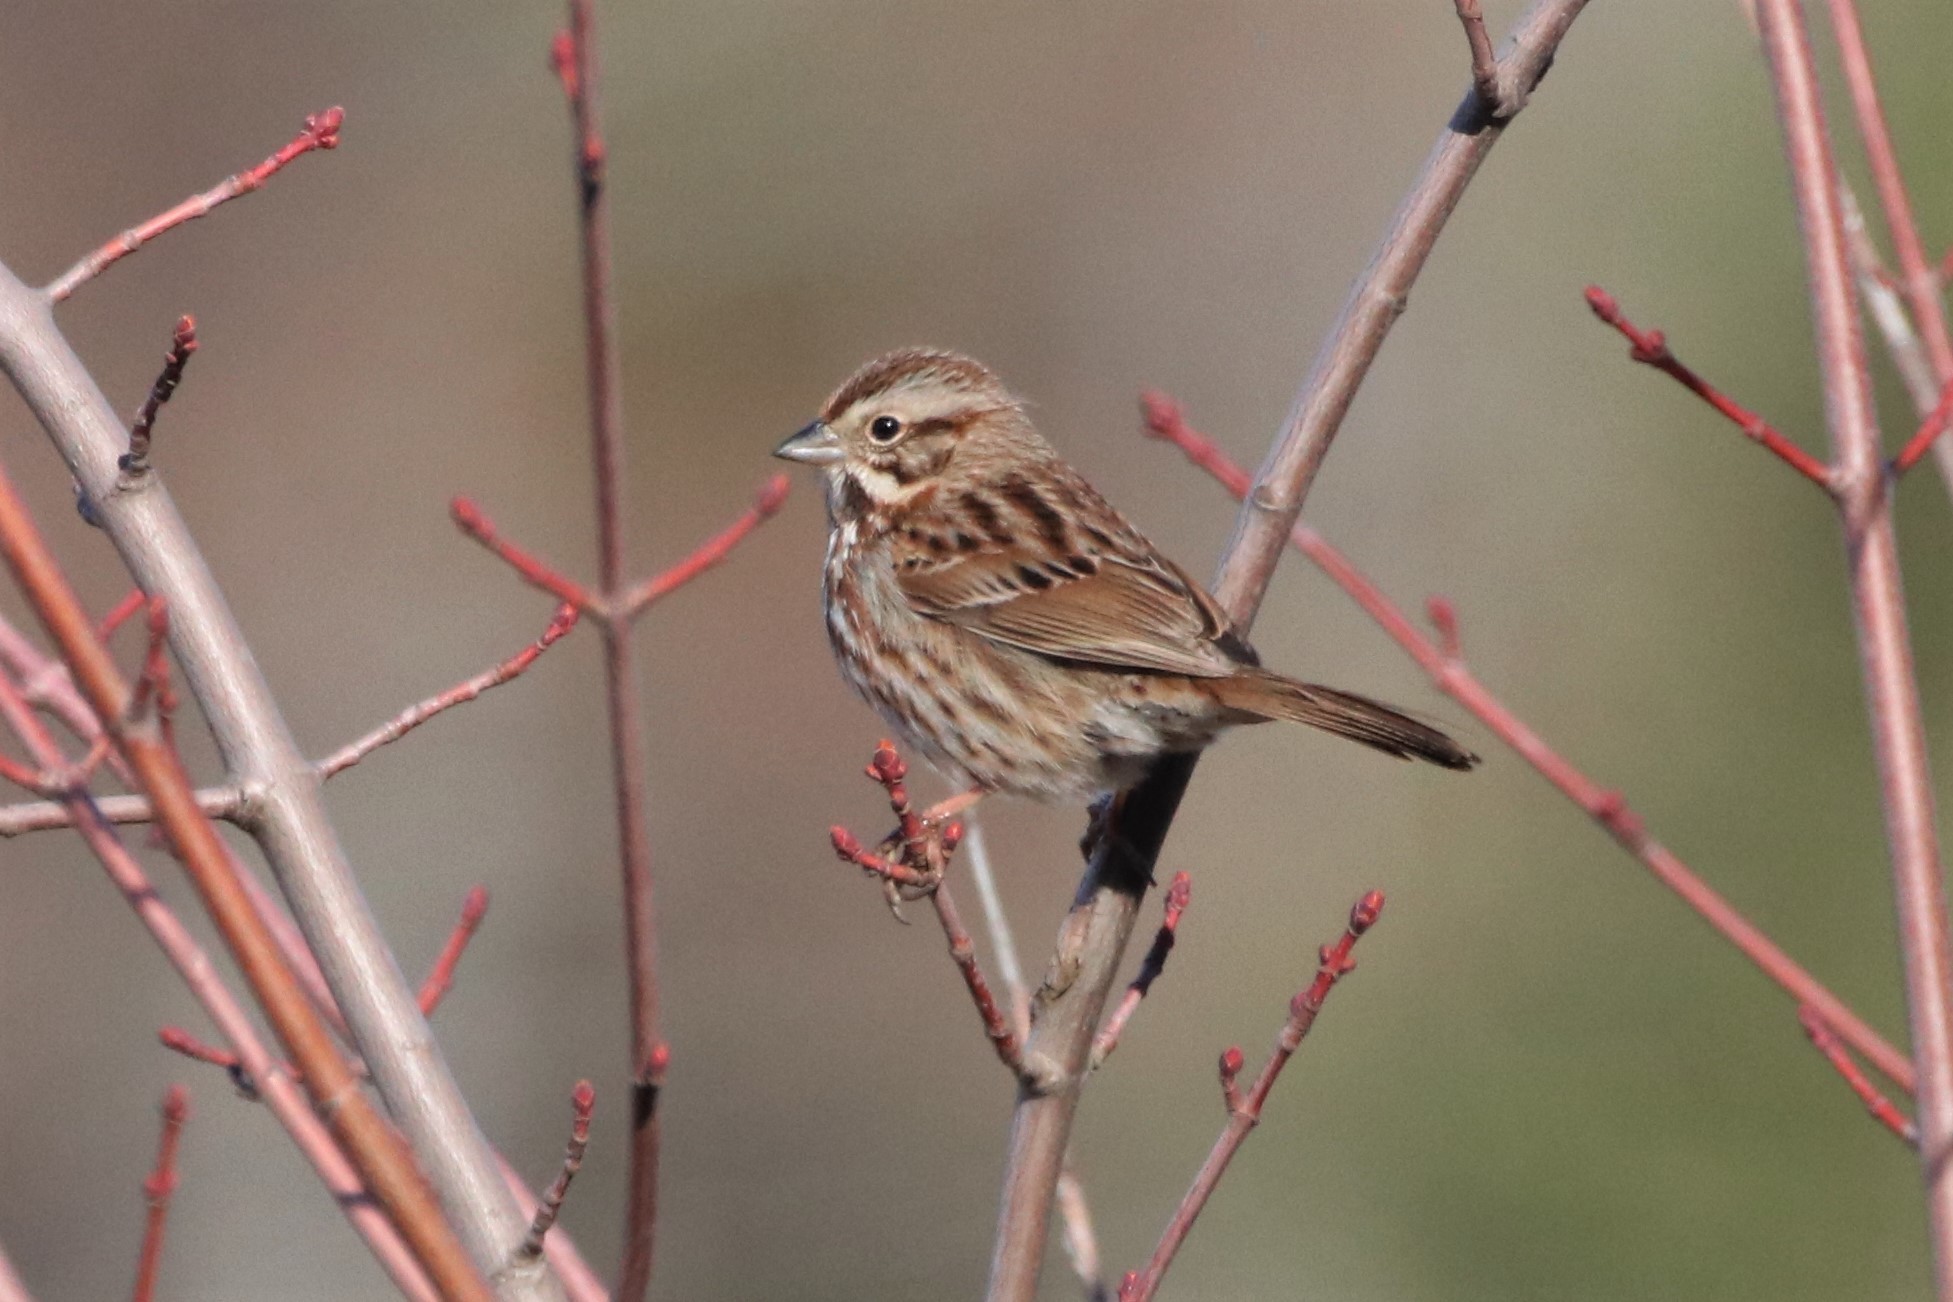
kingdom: Animalia
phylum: Chordata
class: Aves
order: Passeriformes
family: Passerellidae
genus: Melospiza
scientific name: Melospiza melodia
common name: Song sparrow
